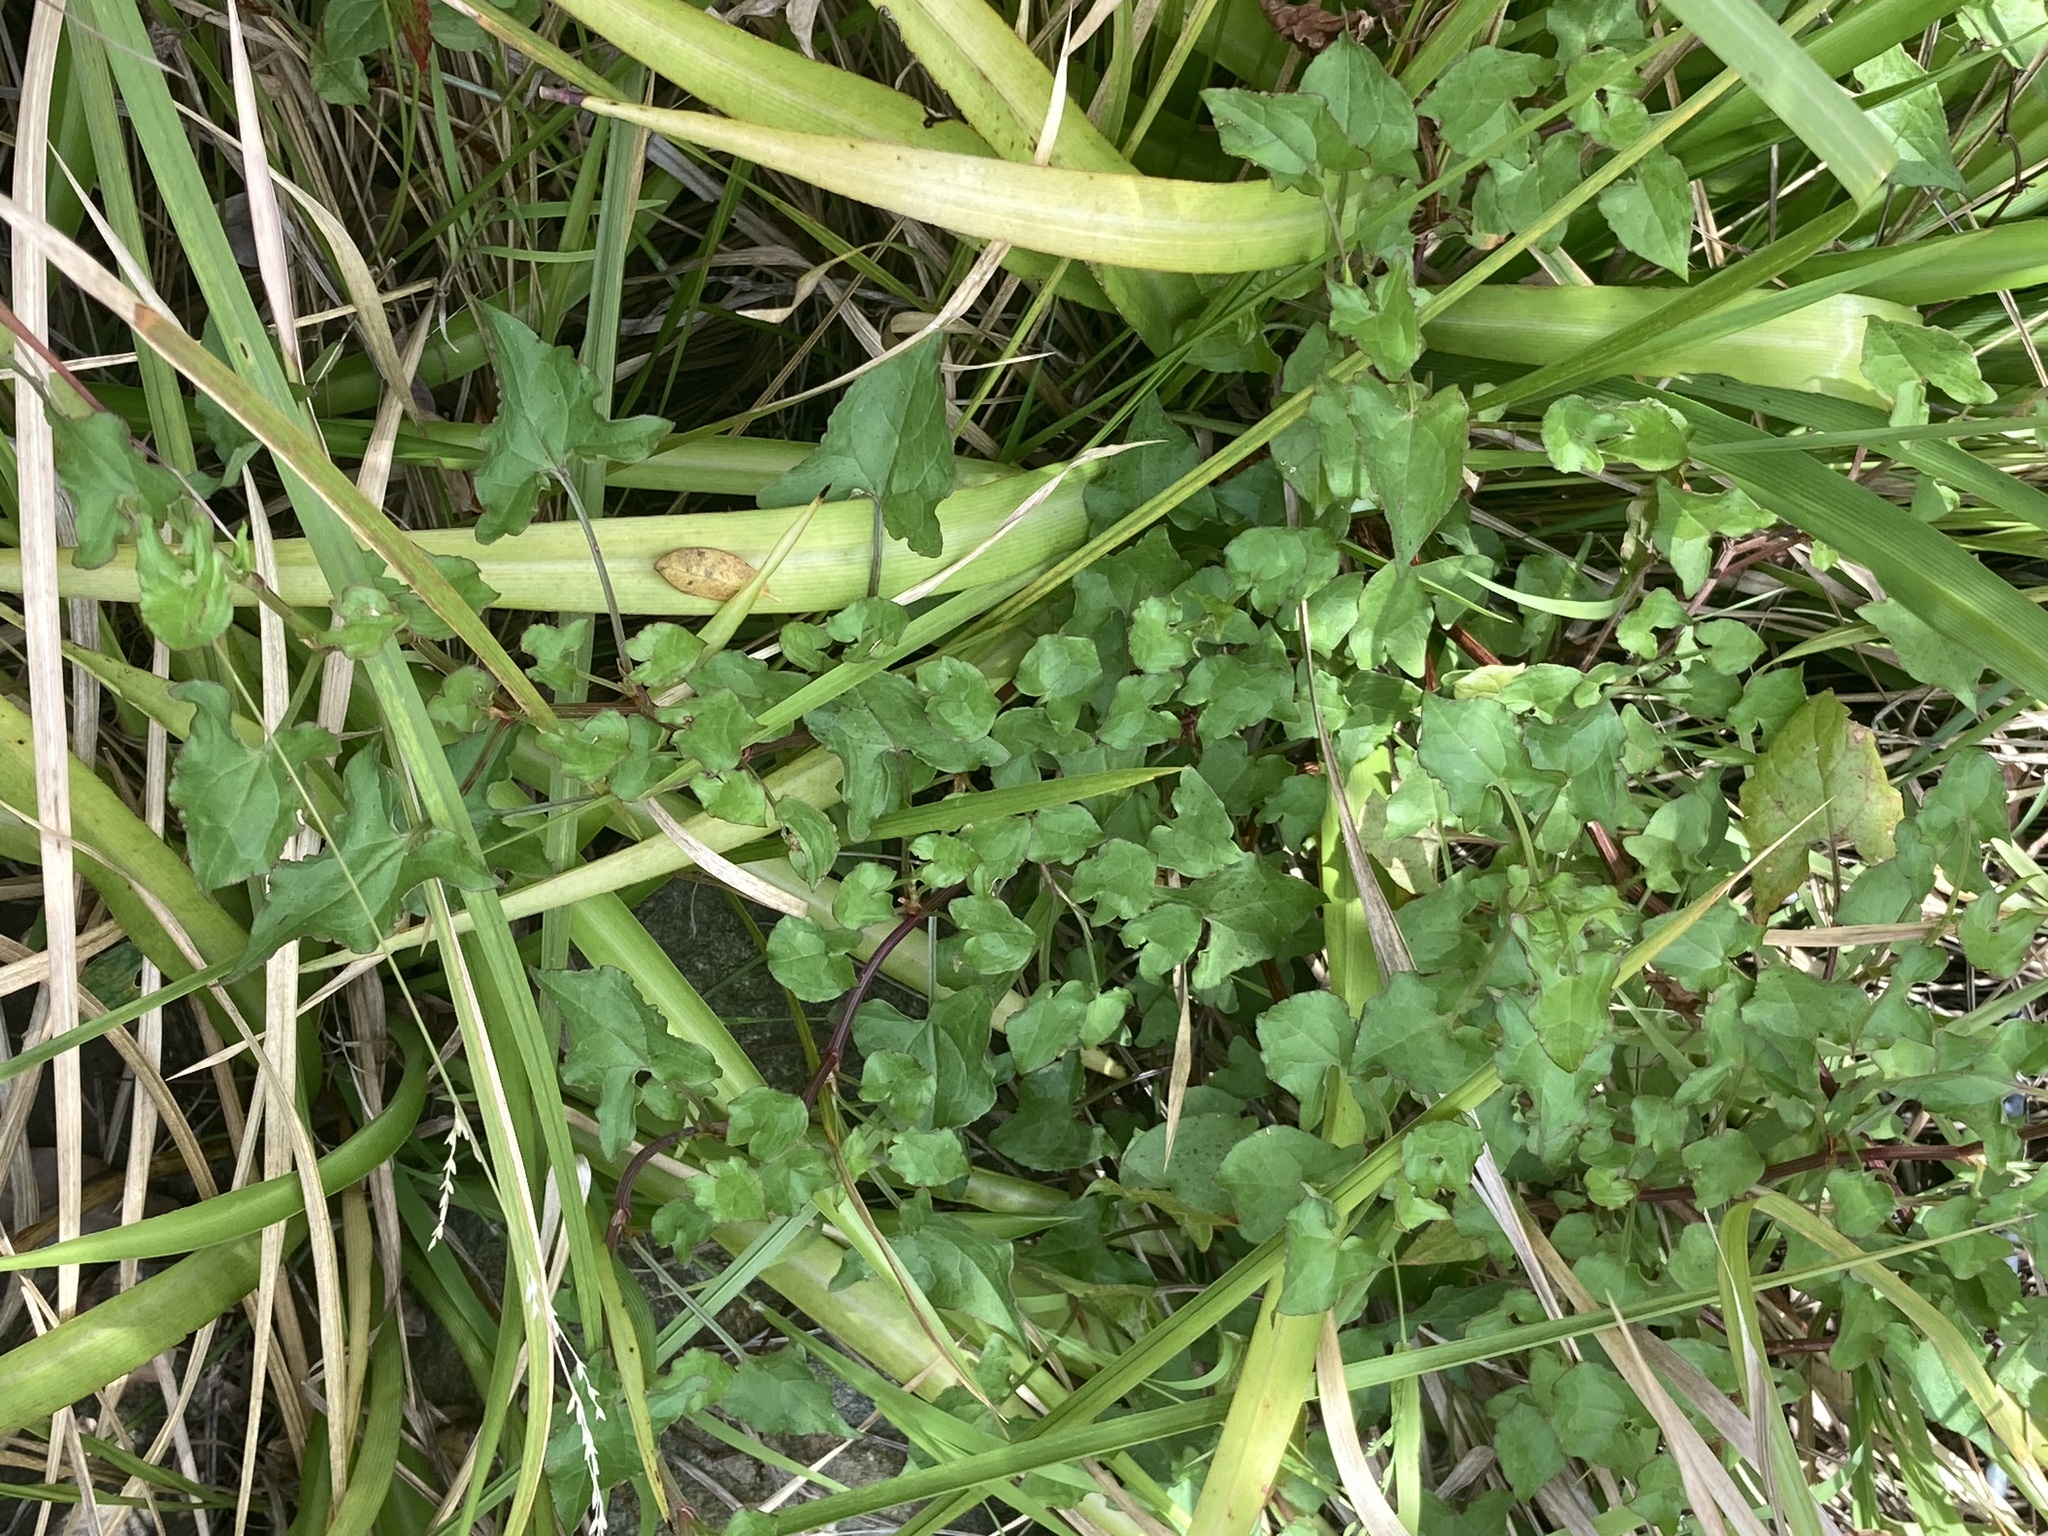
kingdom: Plantae
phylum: Tracheophyta
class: Magnoliopsida
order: Caryophyllales
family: Polygonaceae
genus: Rumex
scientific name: Rumex sagittatus
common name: Climbing dock
